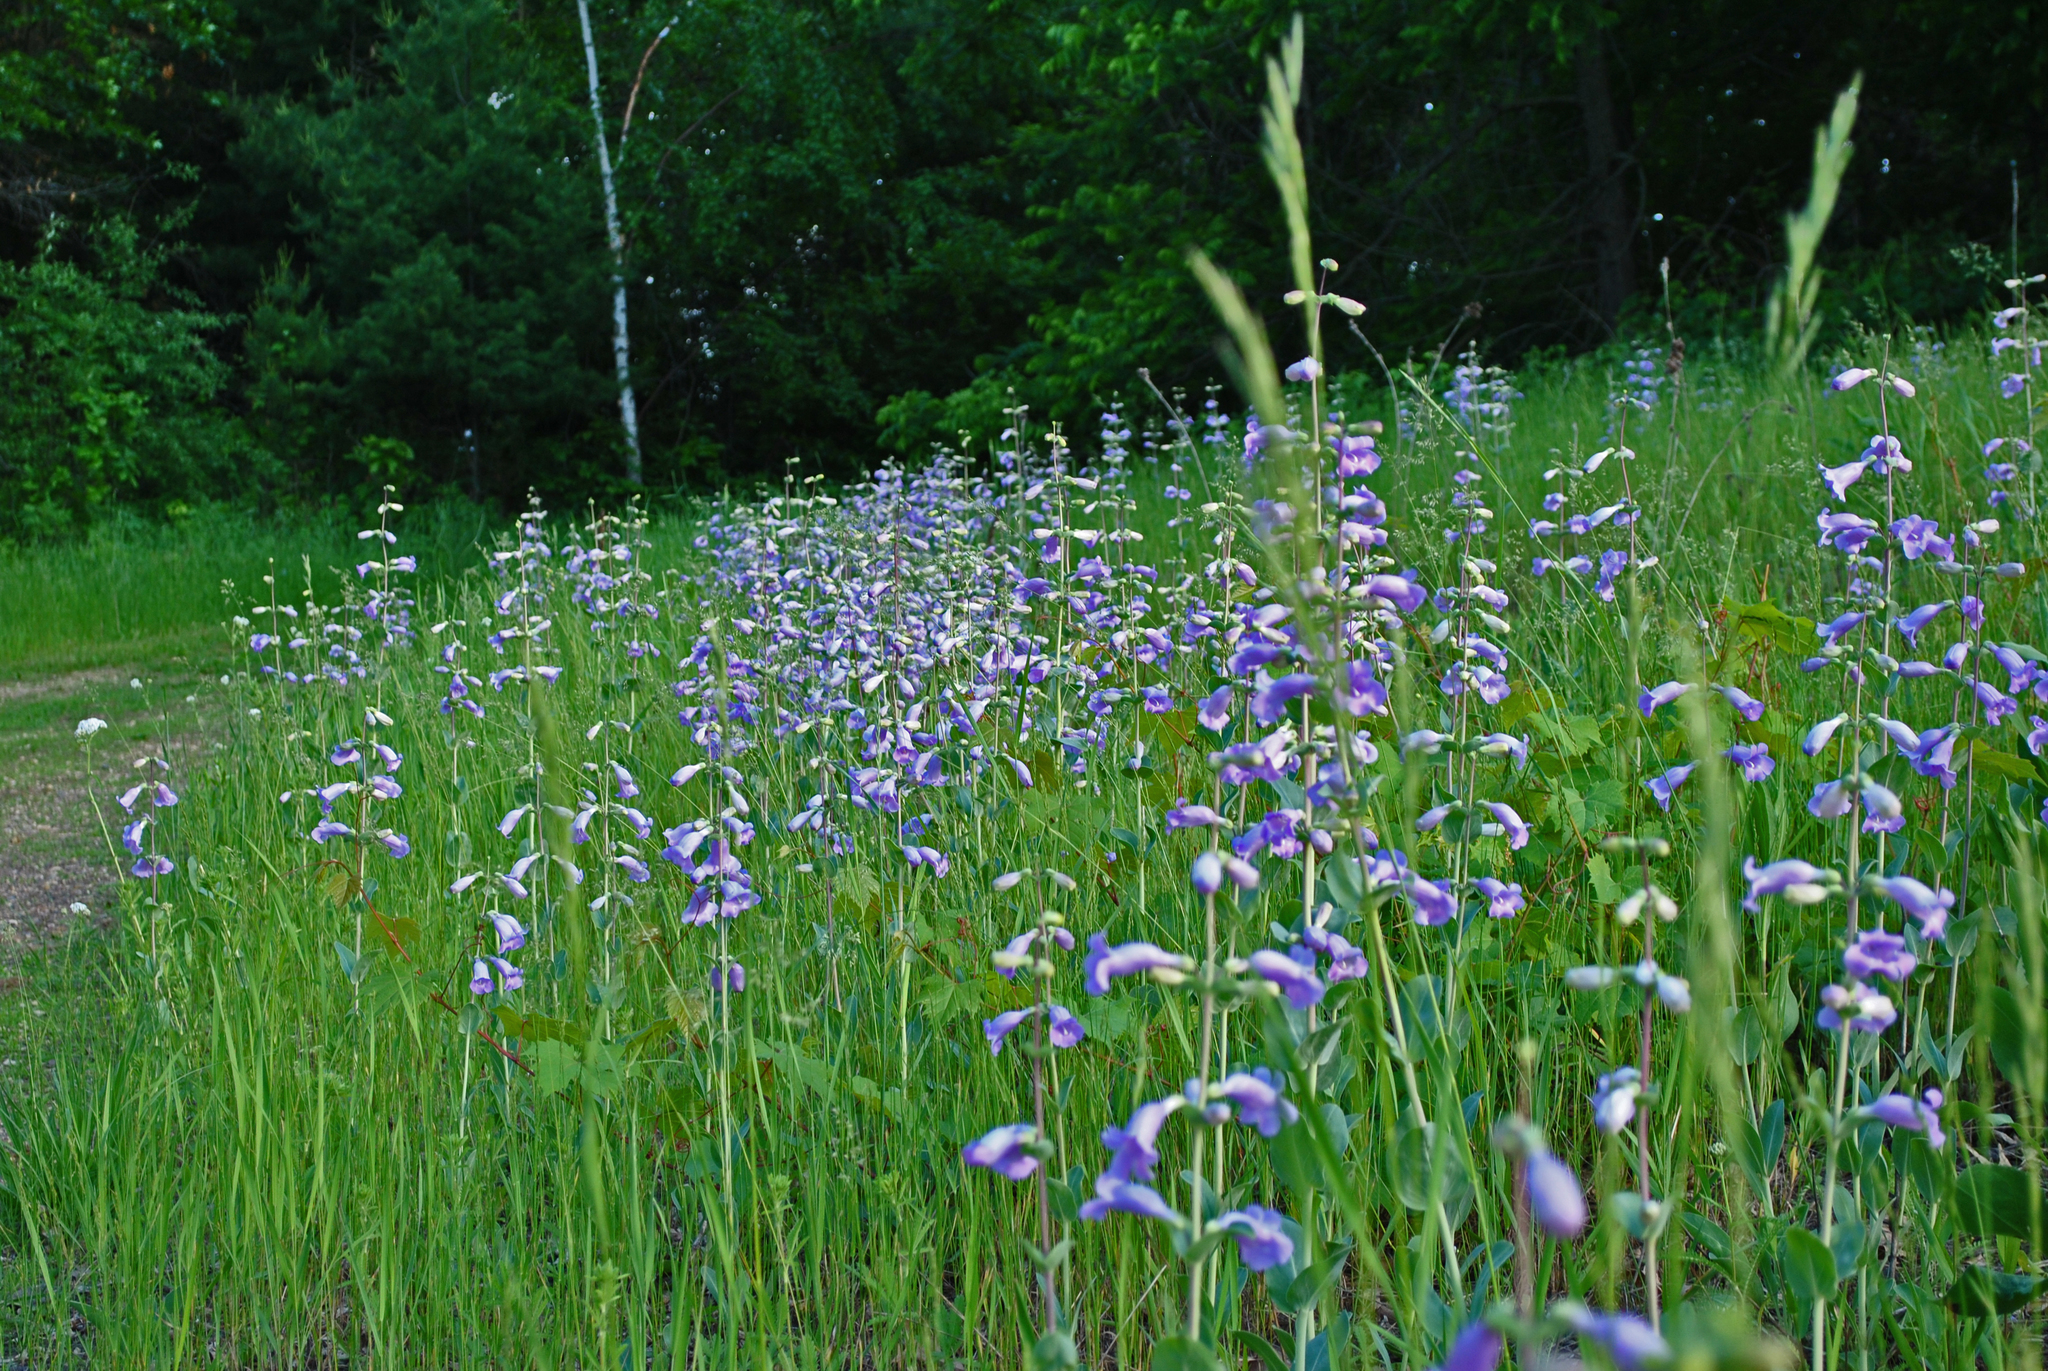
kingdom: Plantae
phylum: Tracheophyta
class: Magnoliopsida
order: Lamiales
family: Plantaginaceae
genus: Penstemon
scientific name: Penstemon
